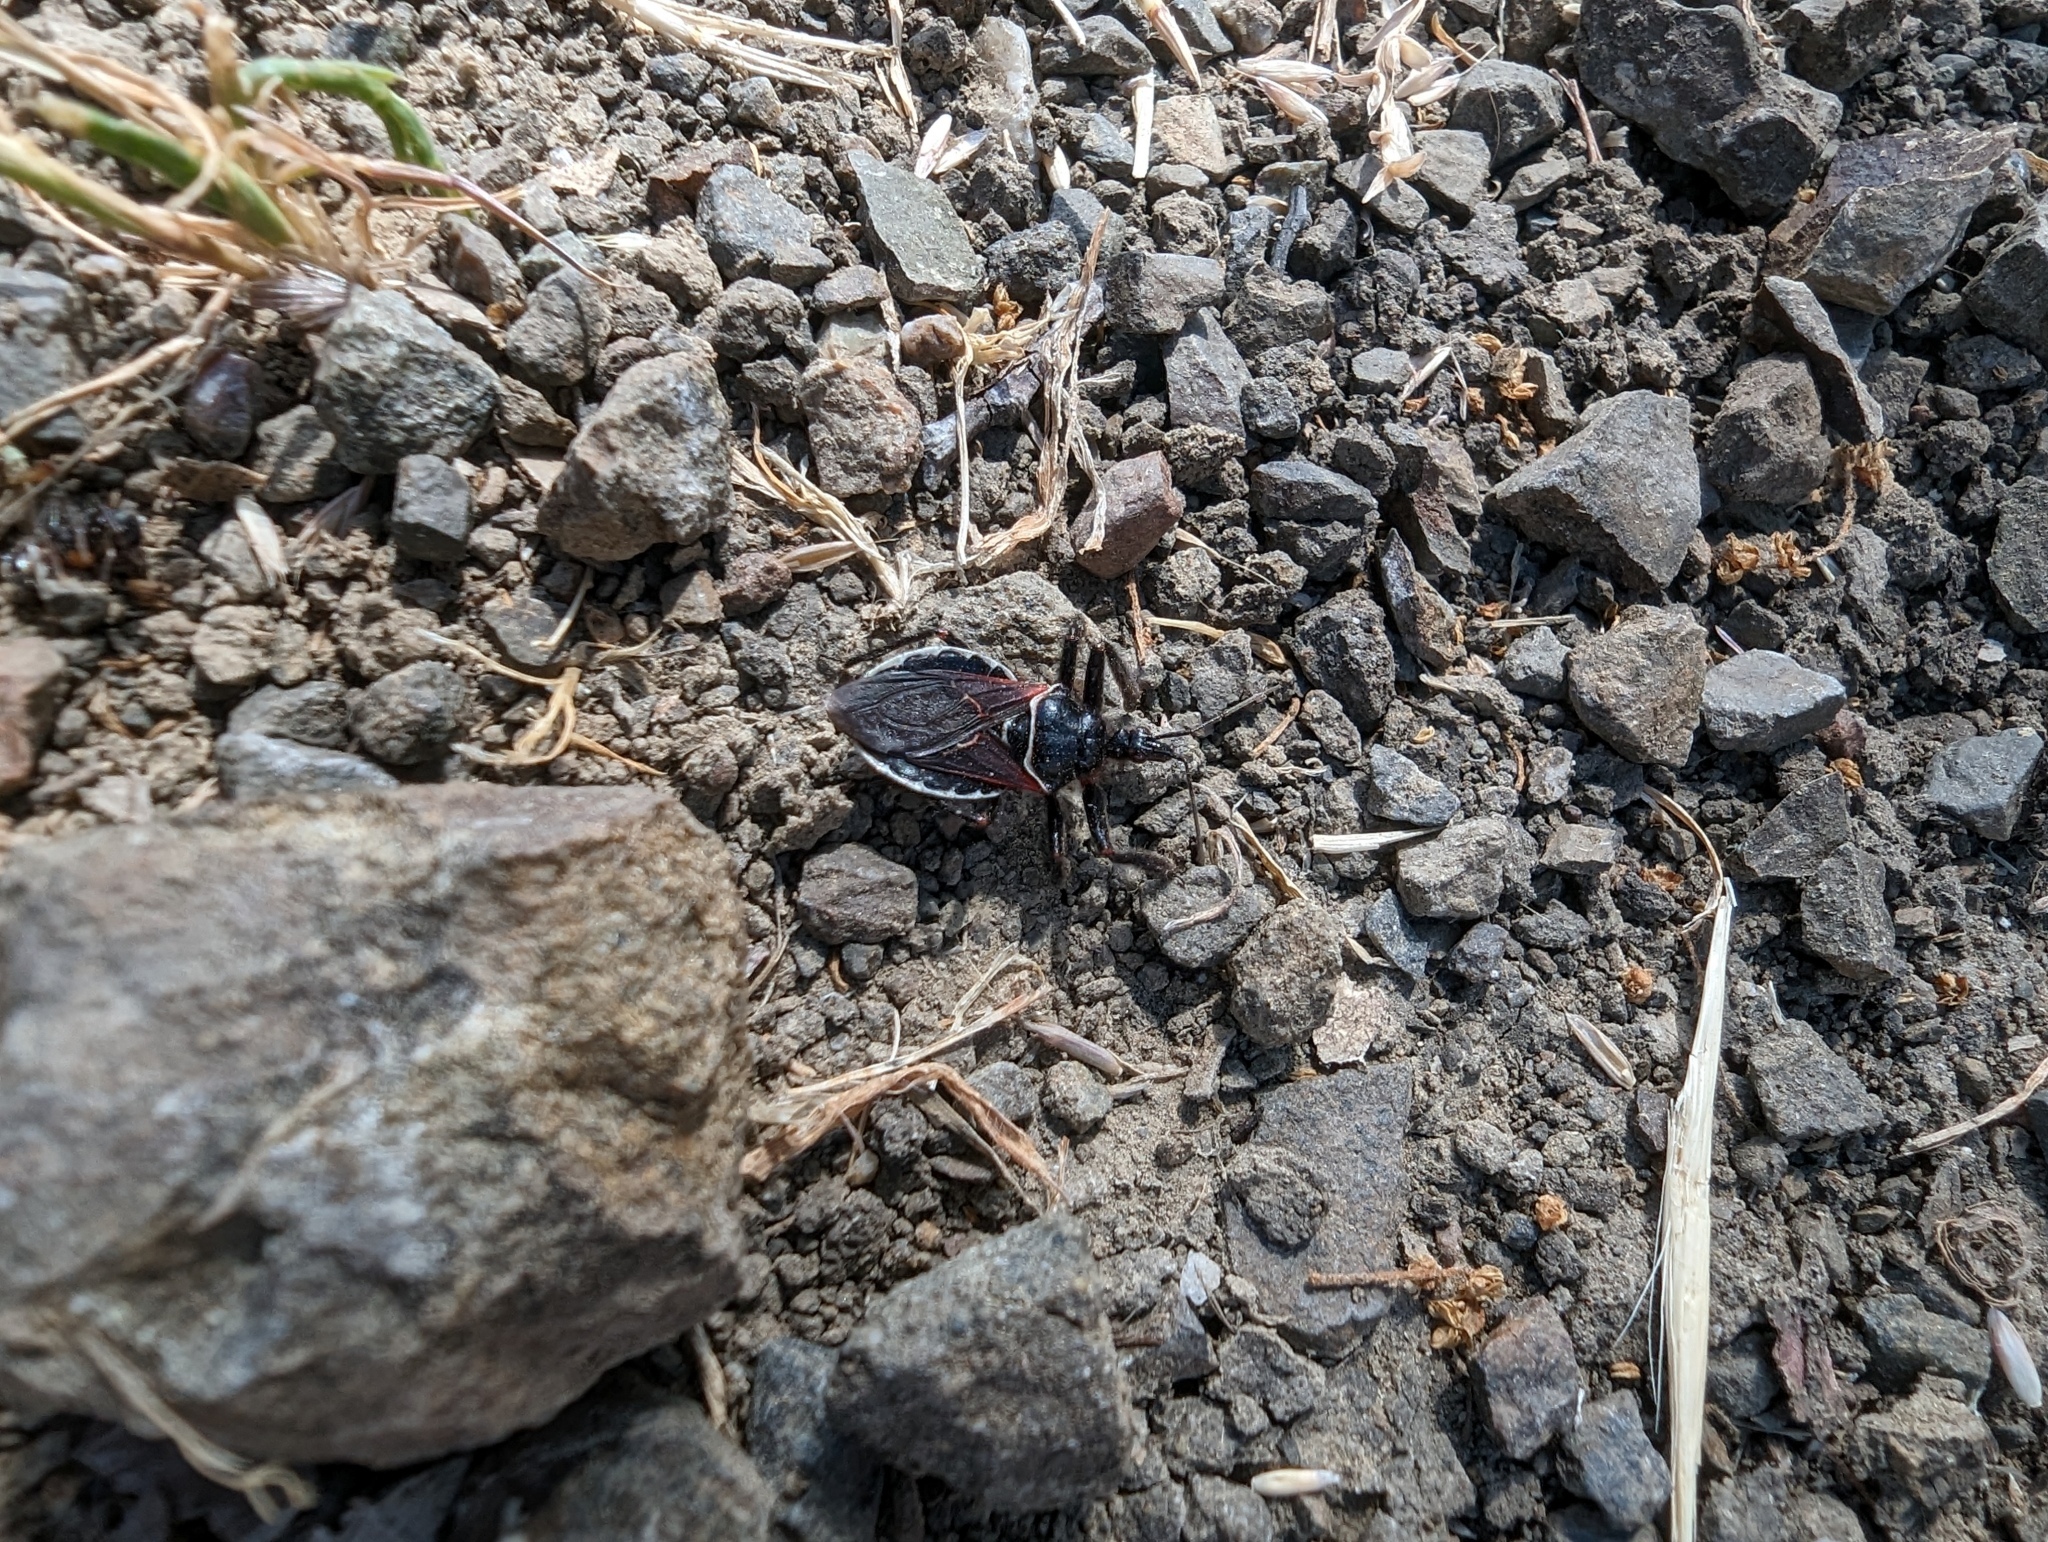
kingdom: Animalia
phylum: Arthropoda
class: Insecta
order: Hemiptera
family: Reduviidae
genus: Apiomerus
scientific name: Apiomerus californicus
